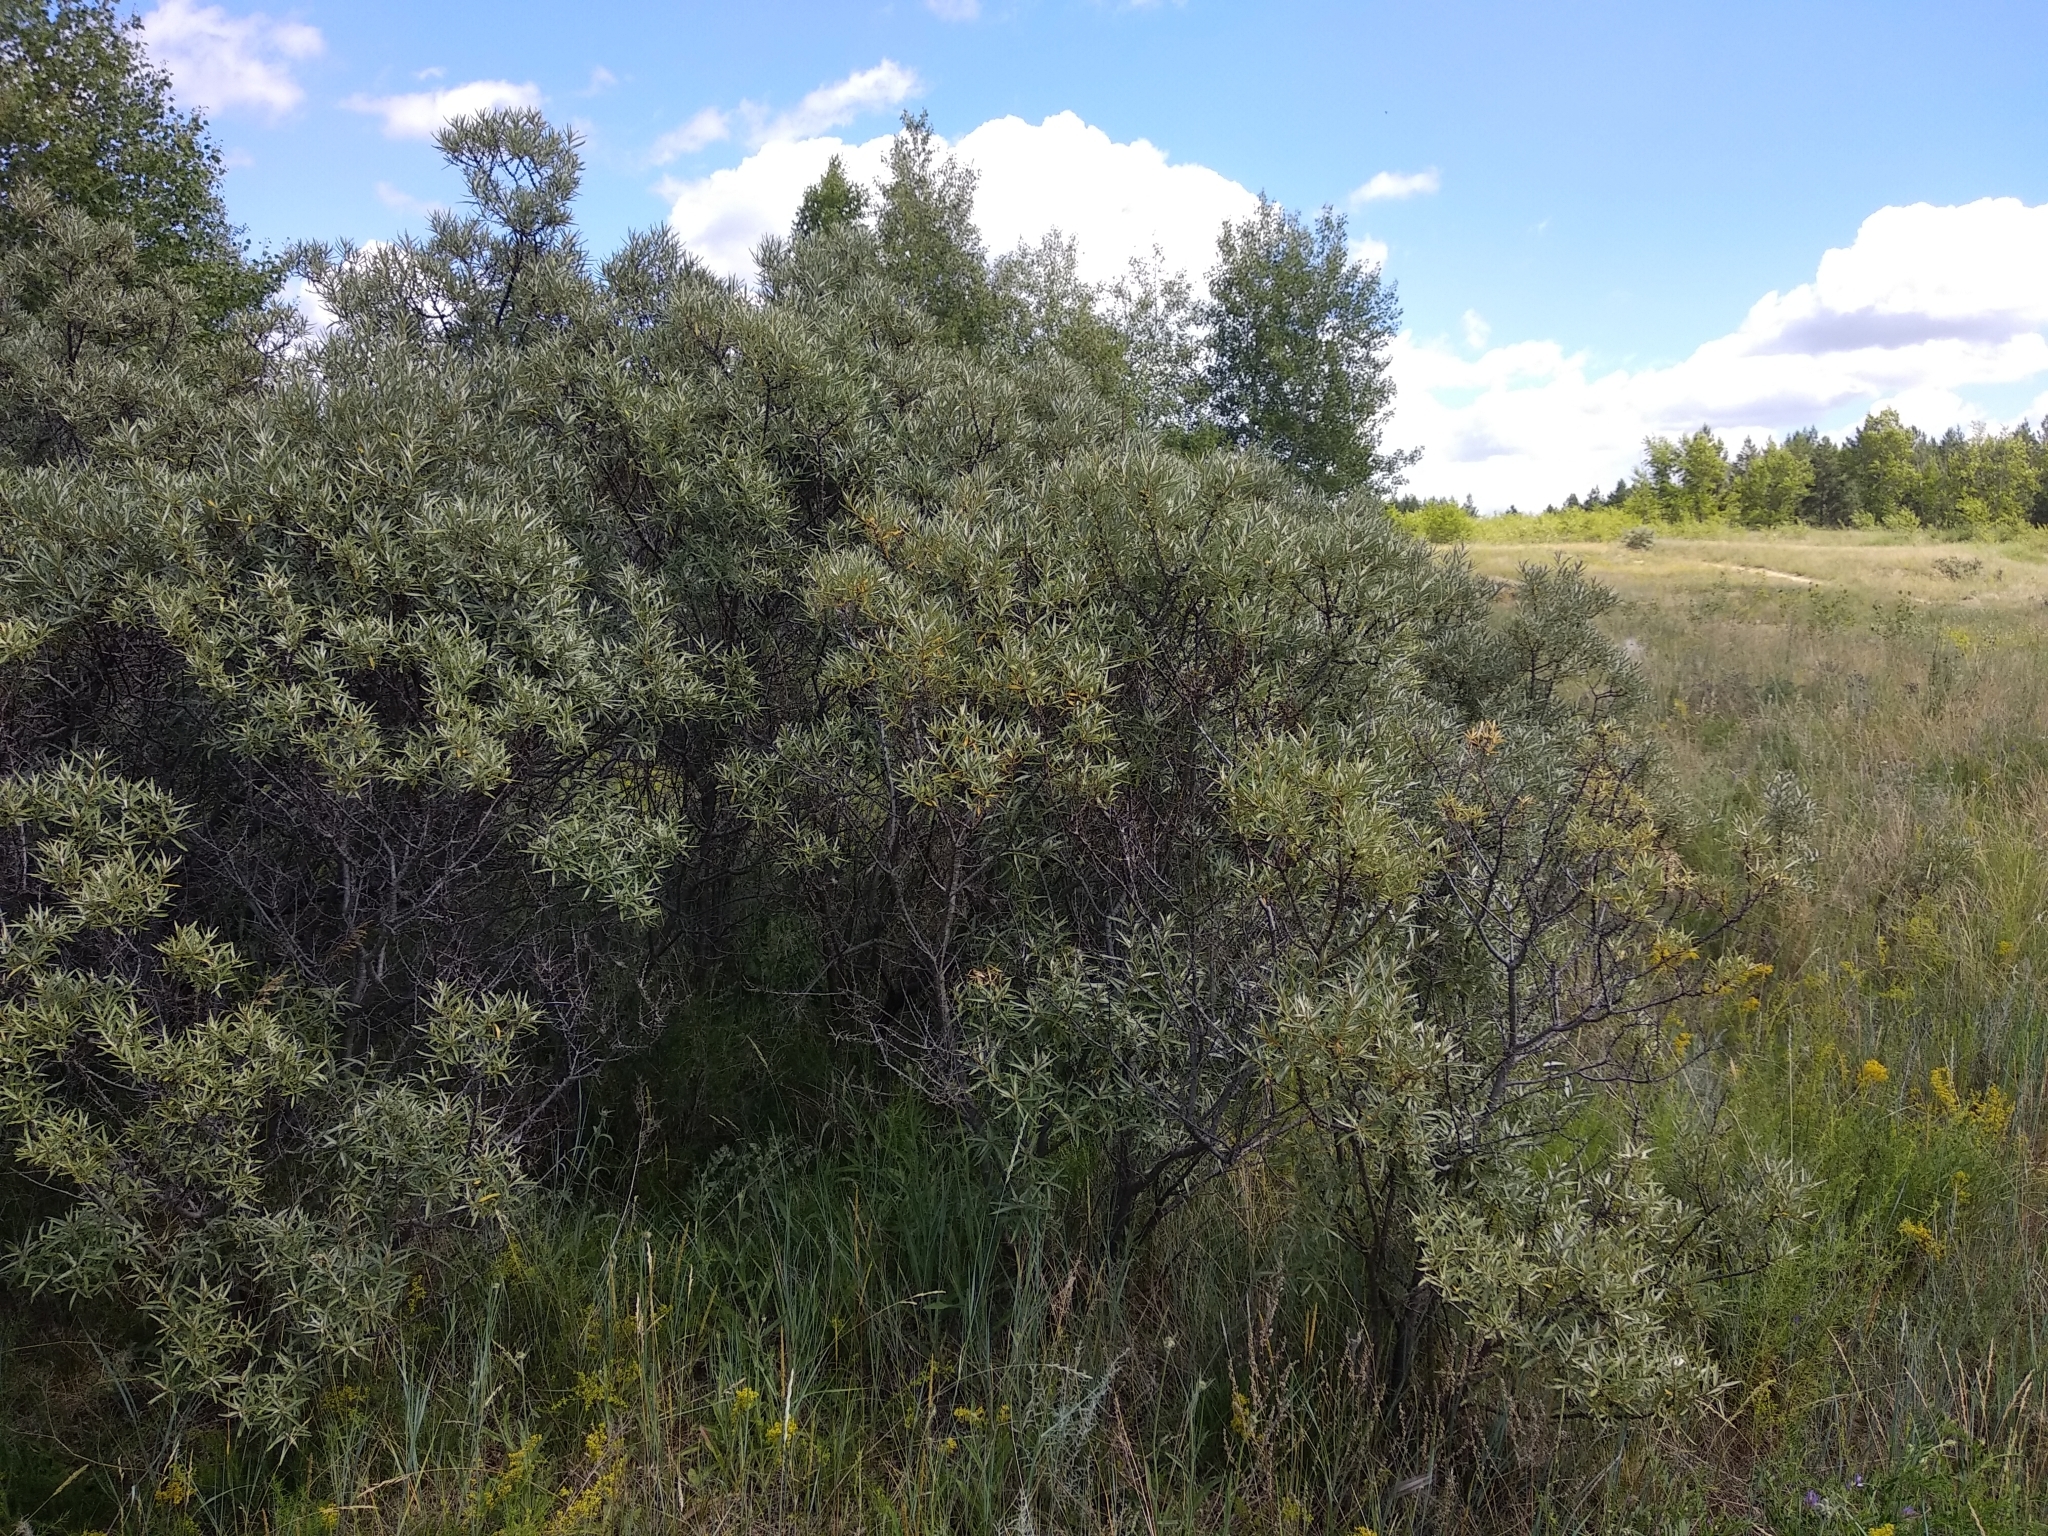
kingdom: Plantae
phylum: Tracheophyta
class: Magnoliopsida
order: Rosales
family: Elaeagnaceae
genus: Hippophae
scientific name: Hippophae rhamnoides
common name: Sea-buckthorn
